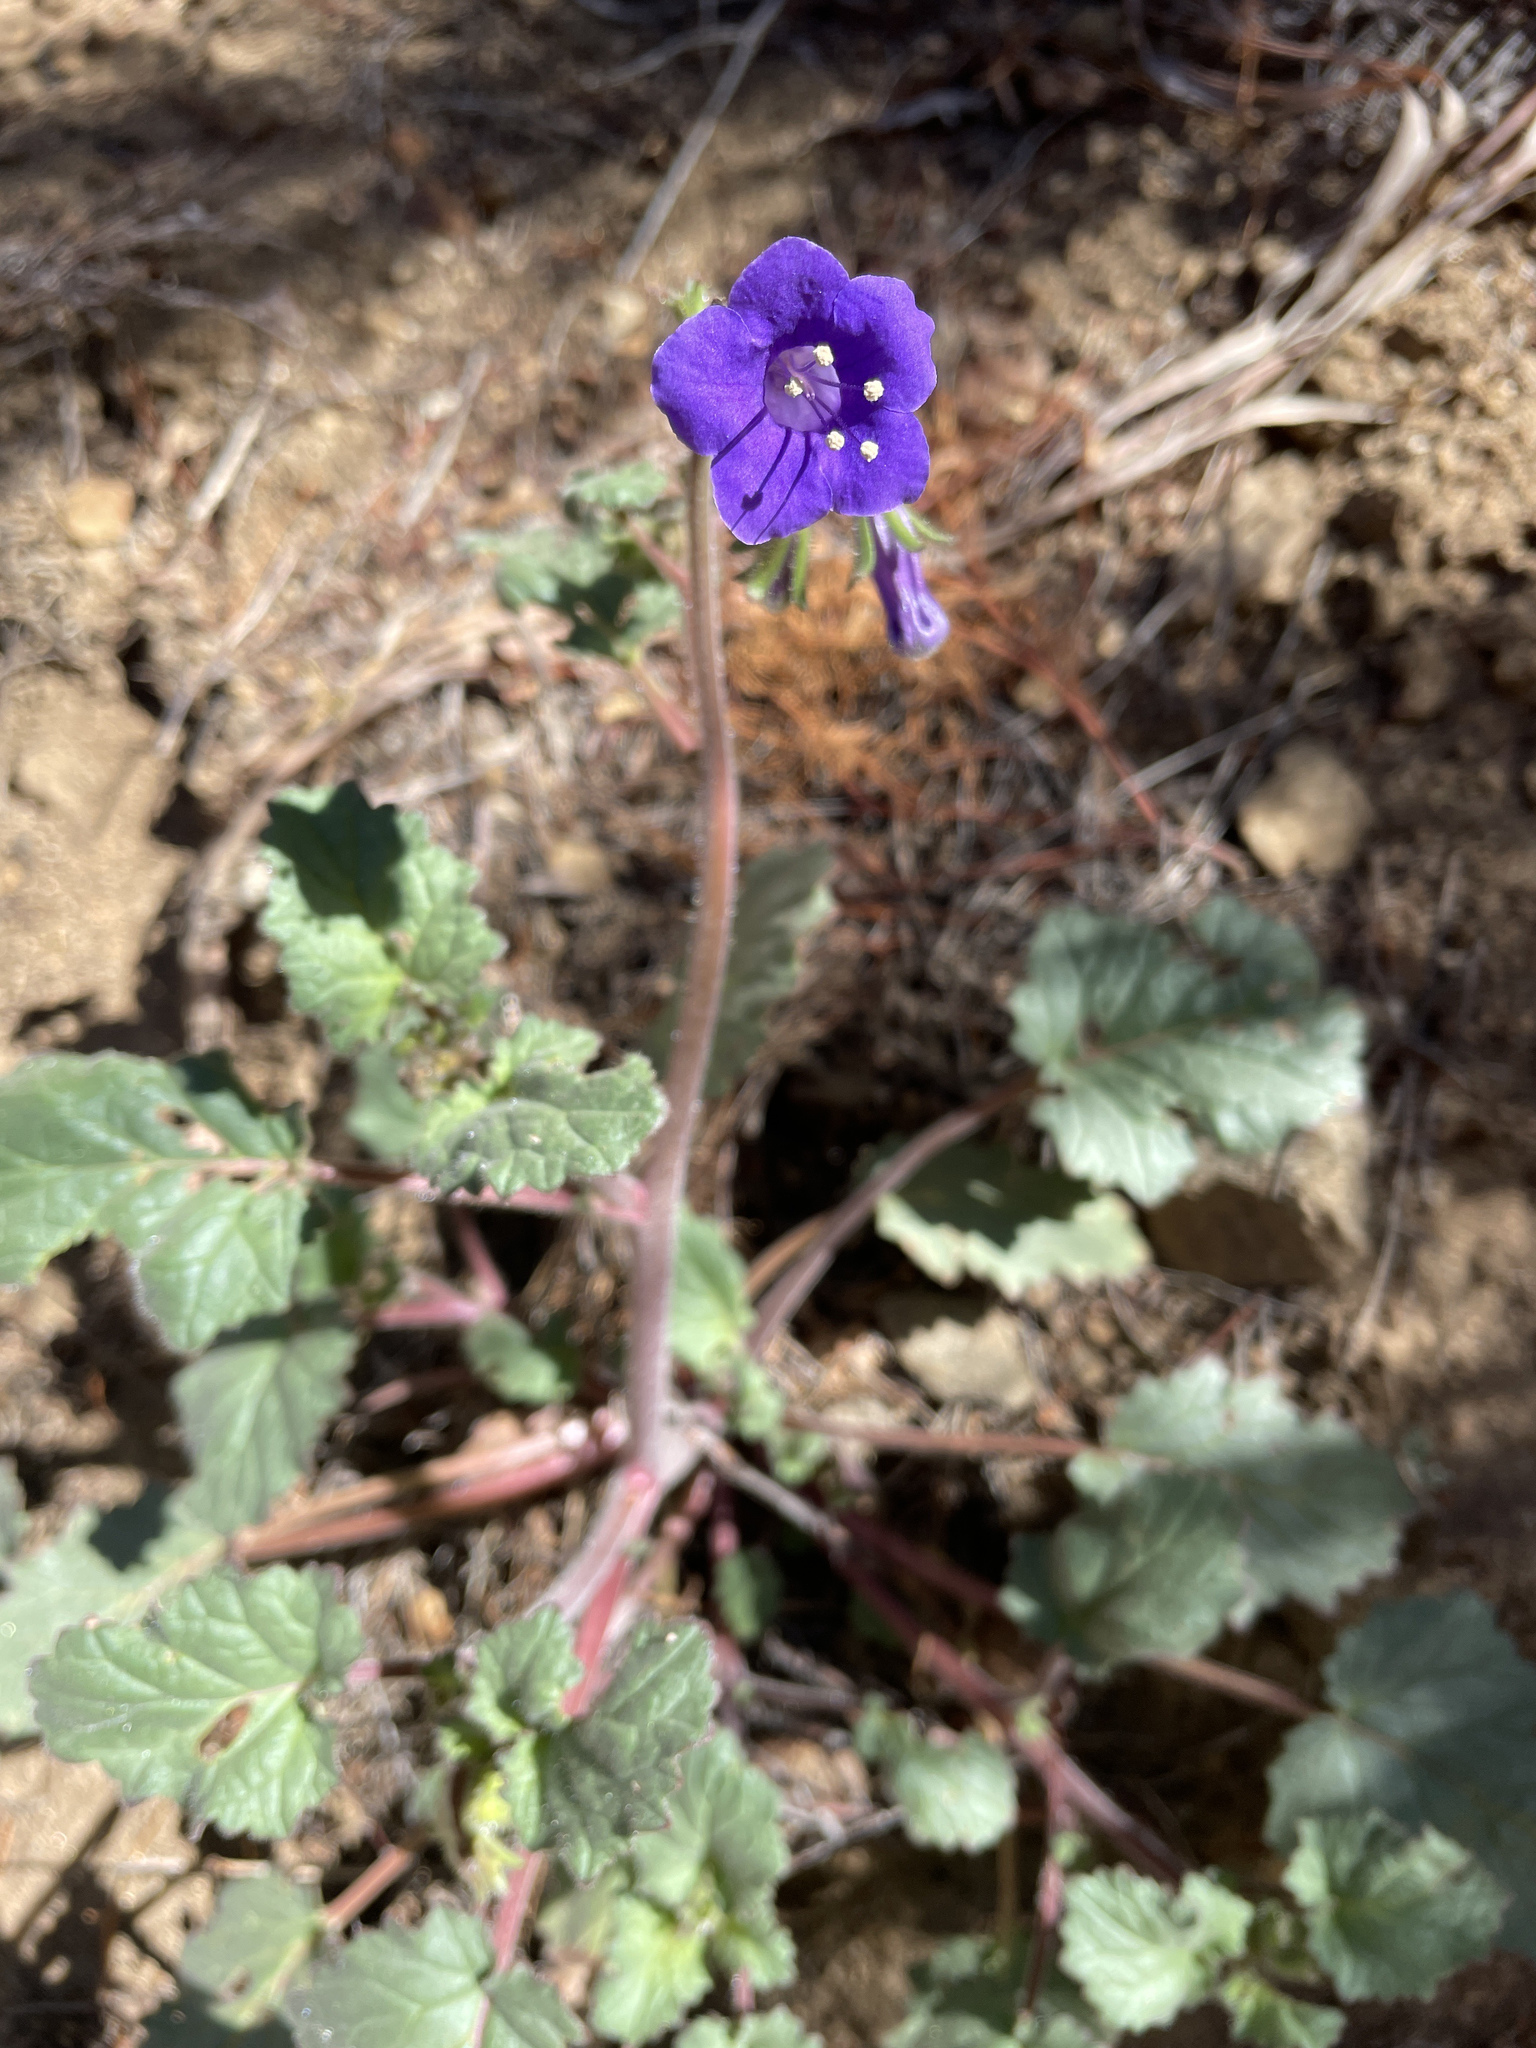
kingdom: Plantae
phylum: Tracheophyta
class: Magnoliopsida
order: Boraginales
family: Hydrophyllaceae
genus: Phacelia
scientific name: Phacelia minor
